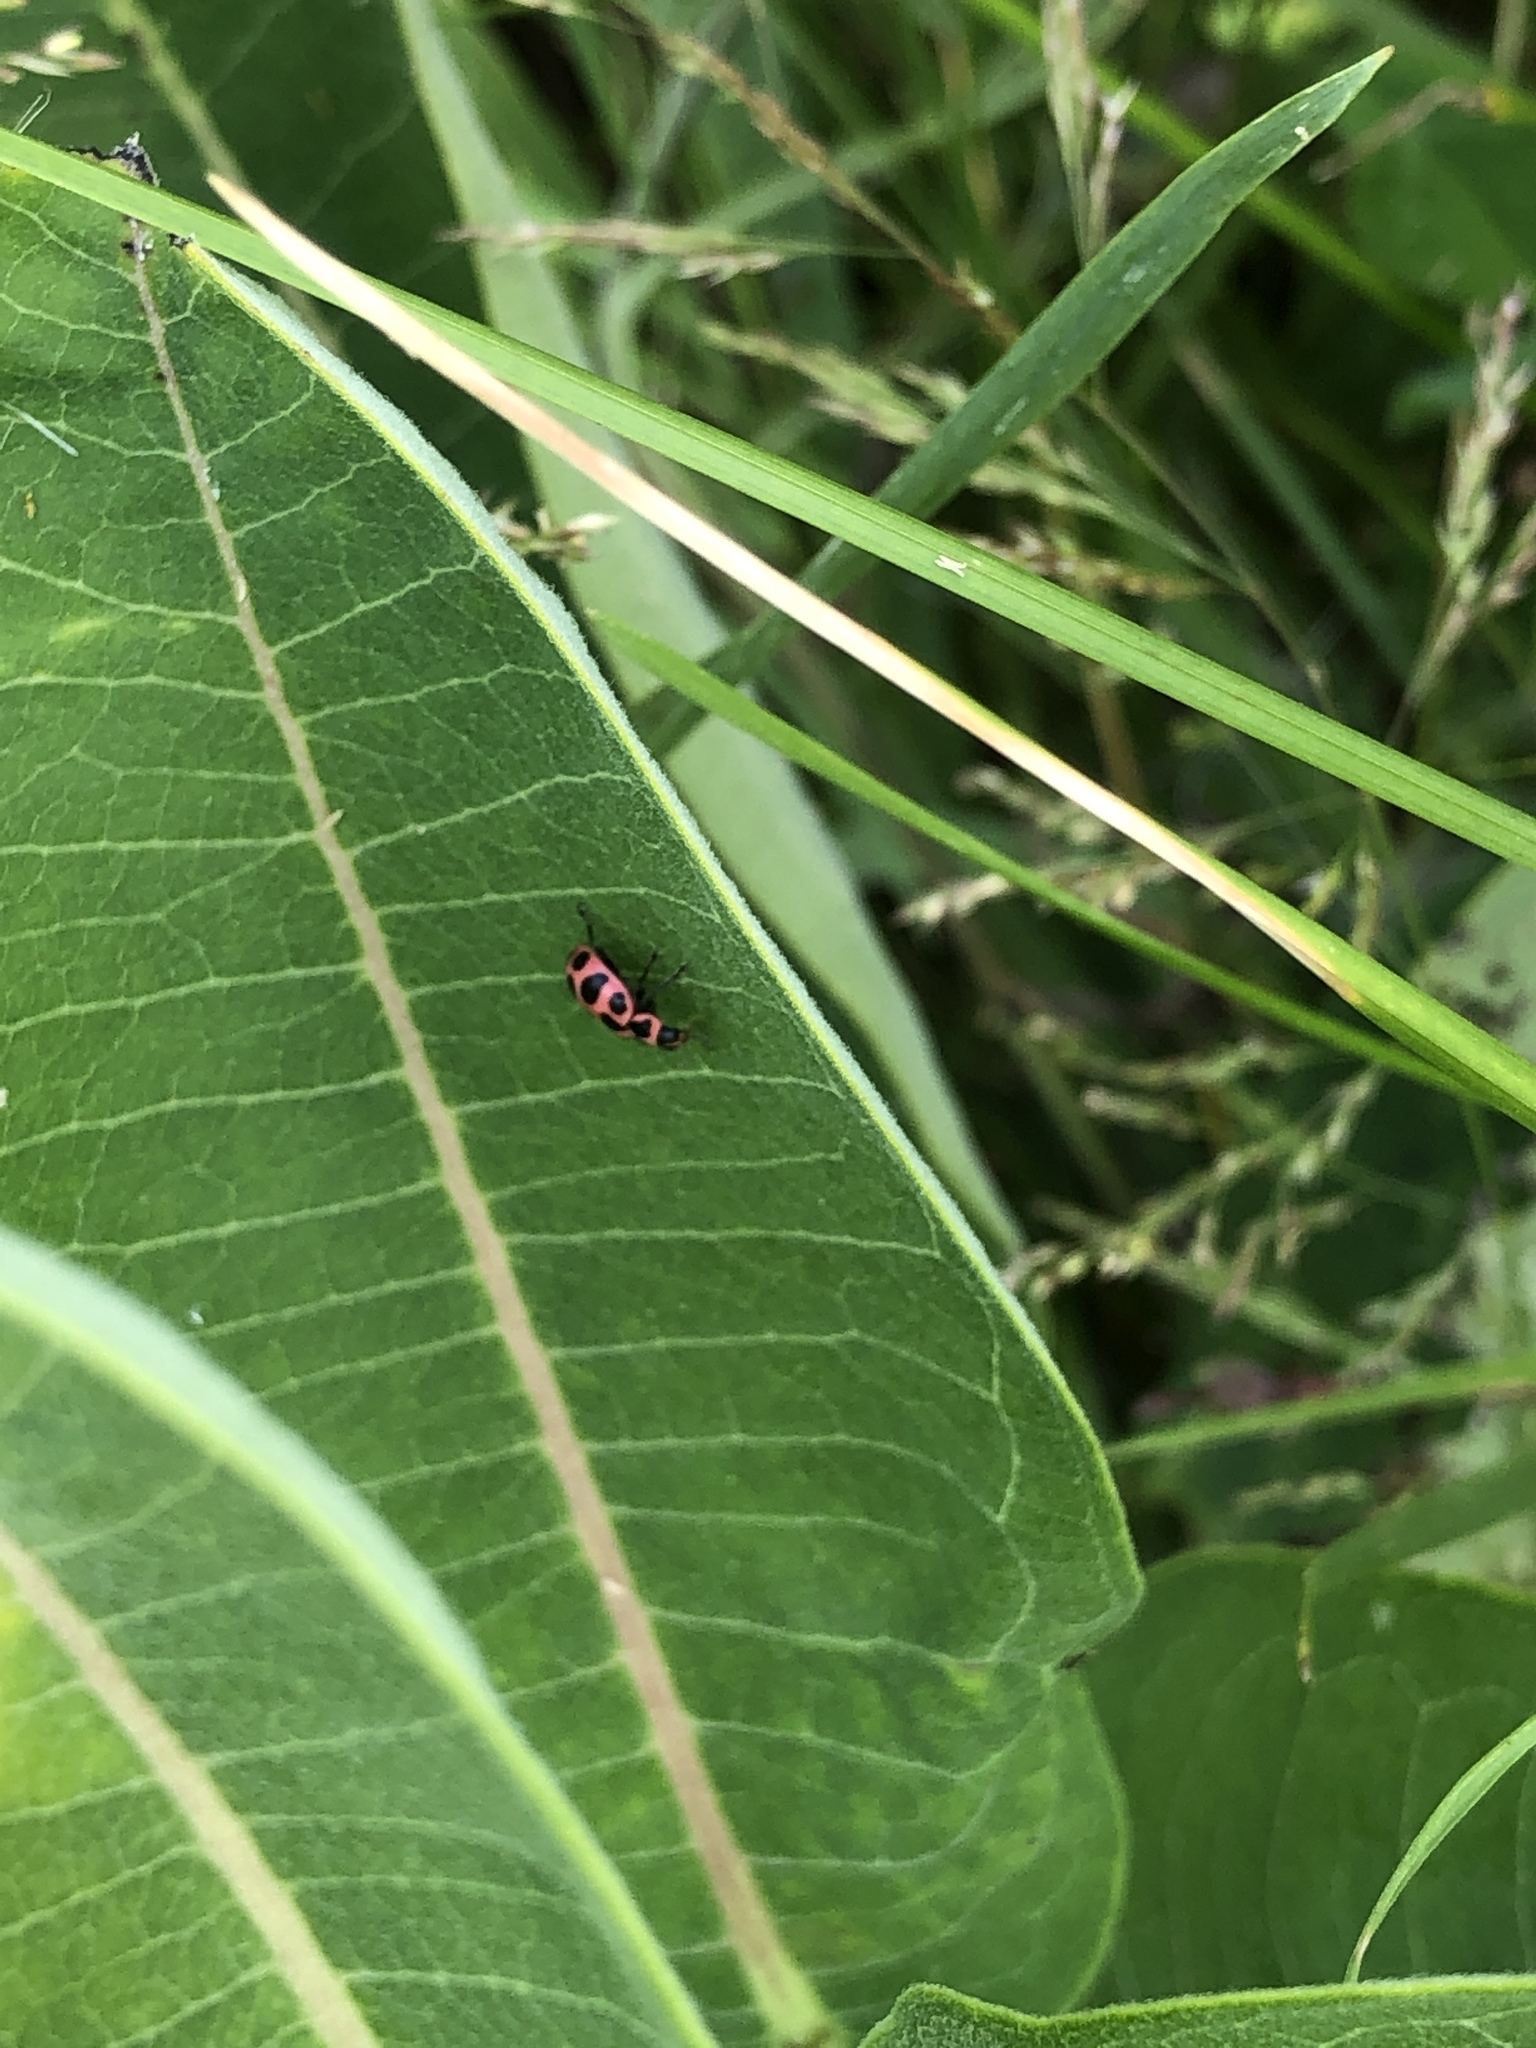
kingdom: Animalia
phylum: Arthropoda
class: Insecta
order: Coleoptera
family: Coccinellidae
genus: Coleomegilla
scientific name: Coleomegilla maculata
